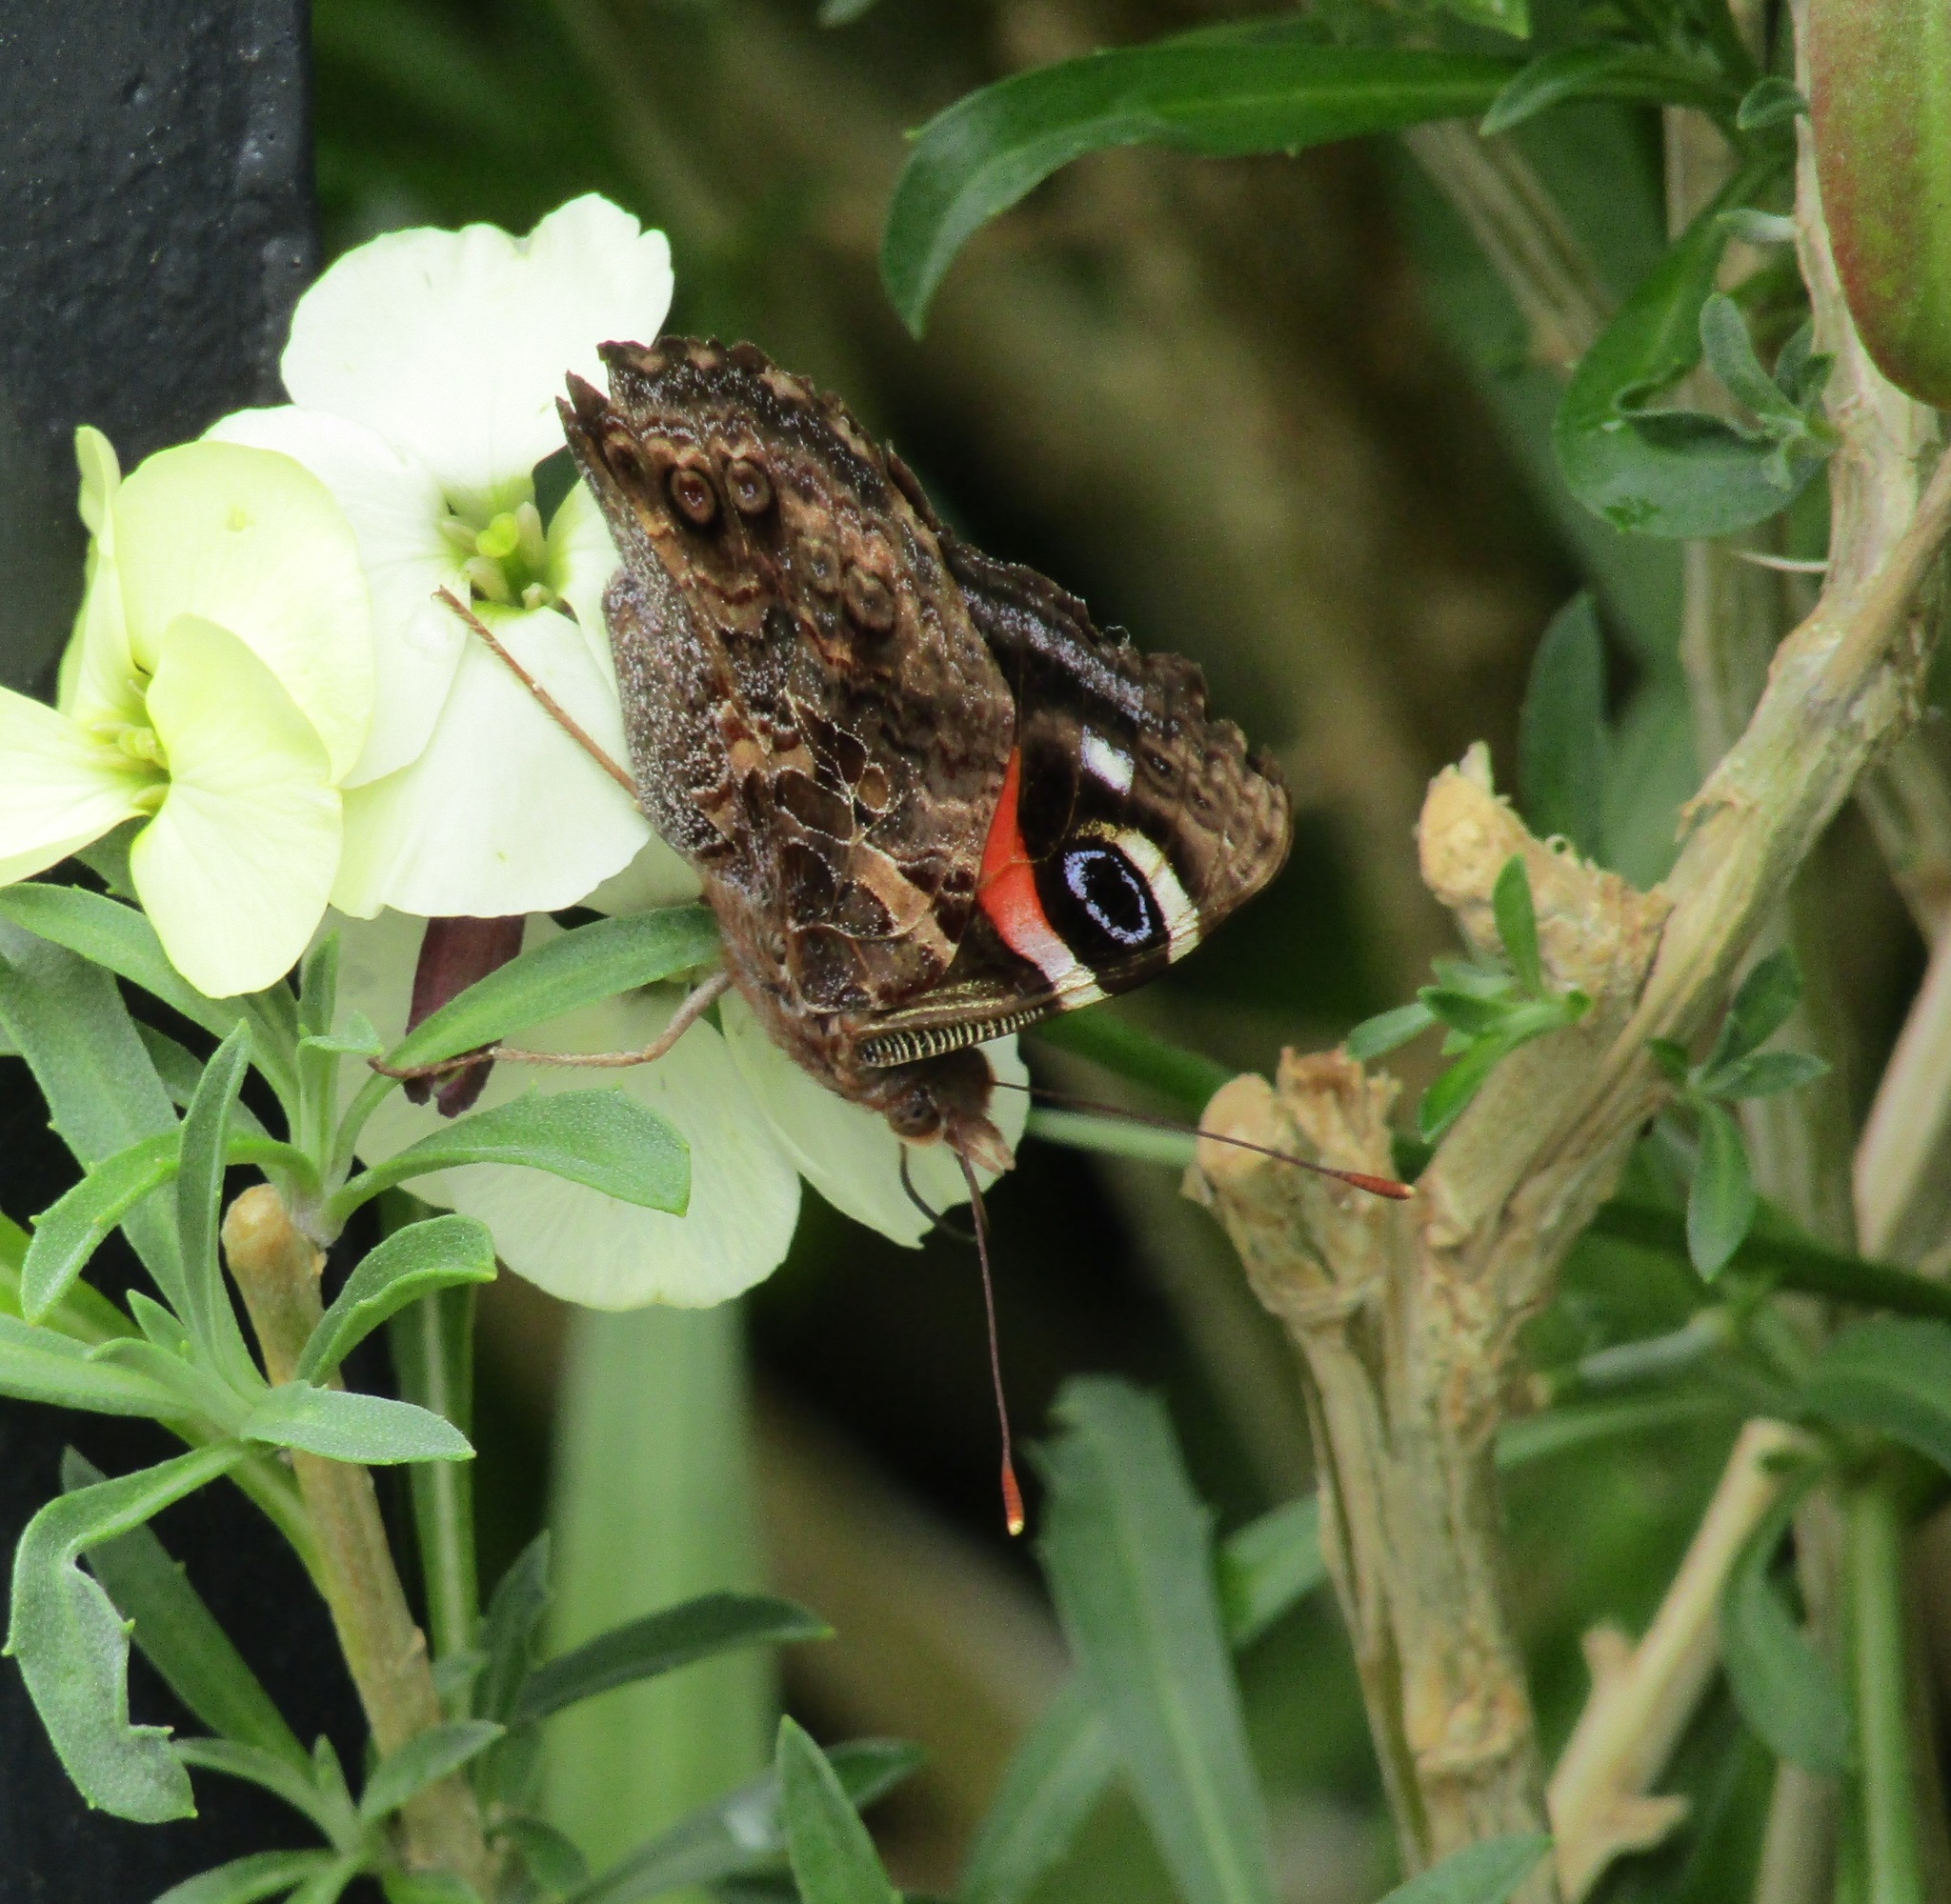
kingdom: Animalia
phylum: Arthropoda
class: Insecta
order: Lepidoptera
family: Nymphalidae
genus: Vanessa
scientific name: Vanessa gonerilla
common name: New zealand red admiral
